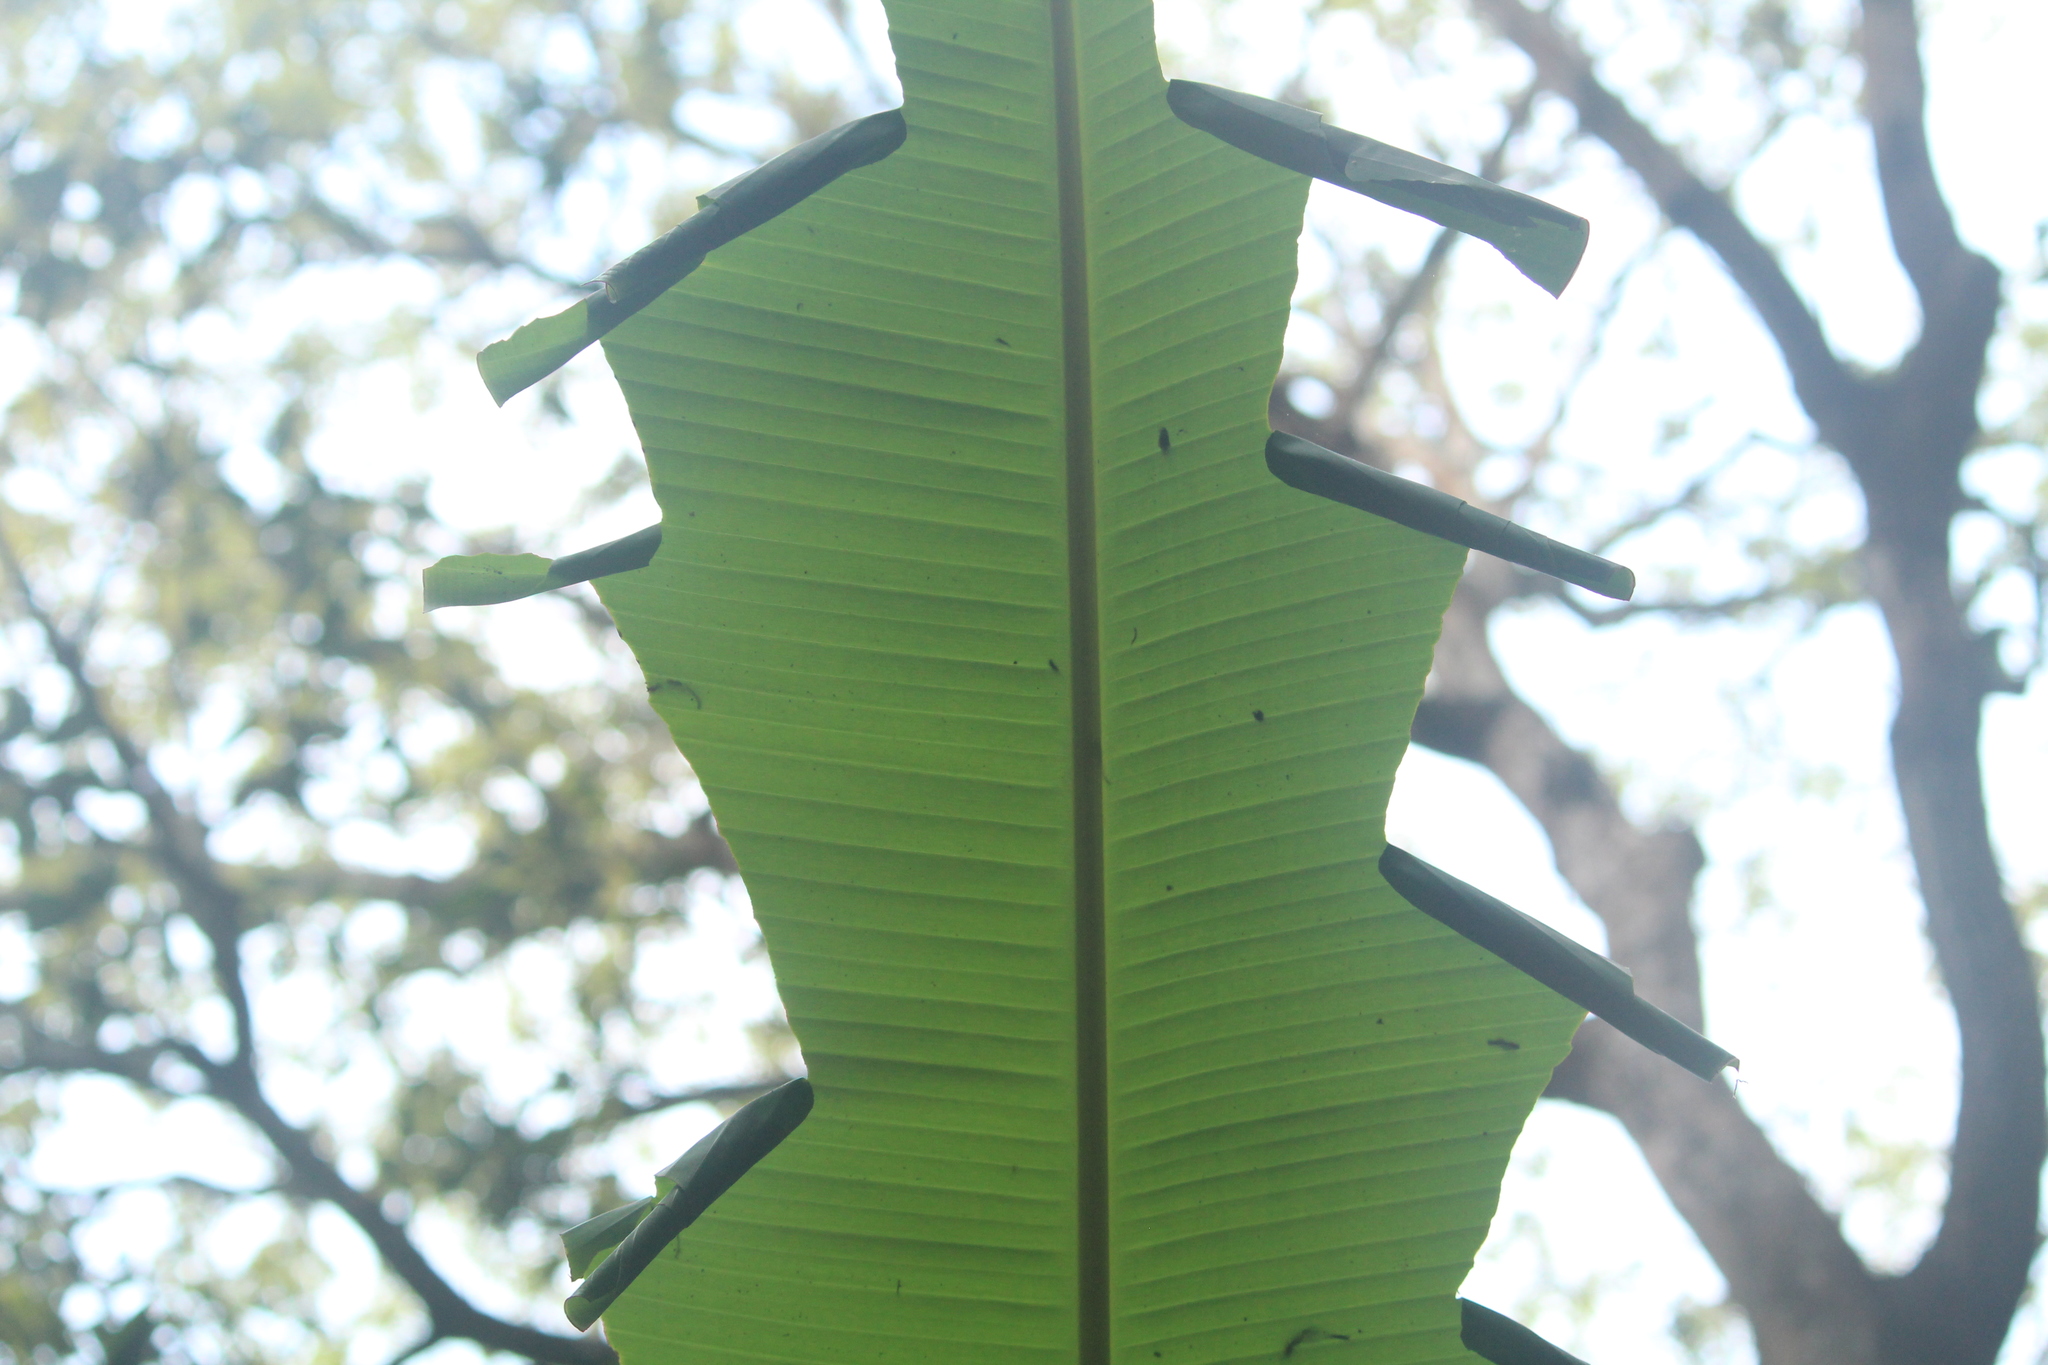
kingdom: Animalia
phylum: Arthropoda
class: Insecta
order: Lepidoptera
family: Hesperiidae
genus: Erionota
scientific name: Erionota torus
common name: Rounded palm-redeye
